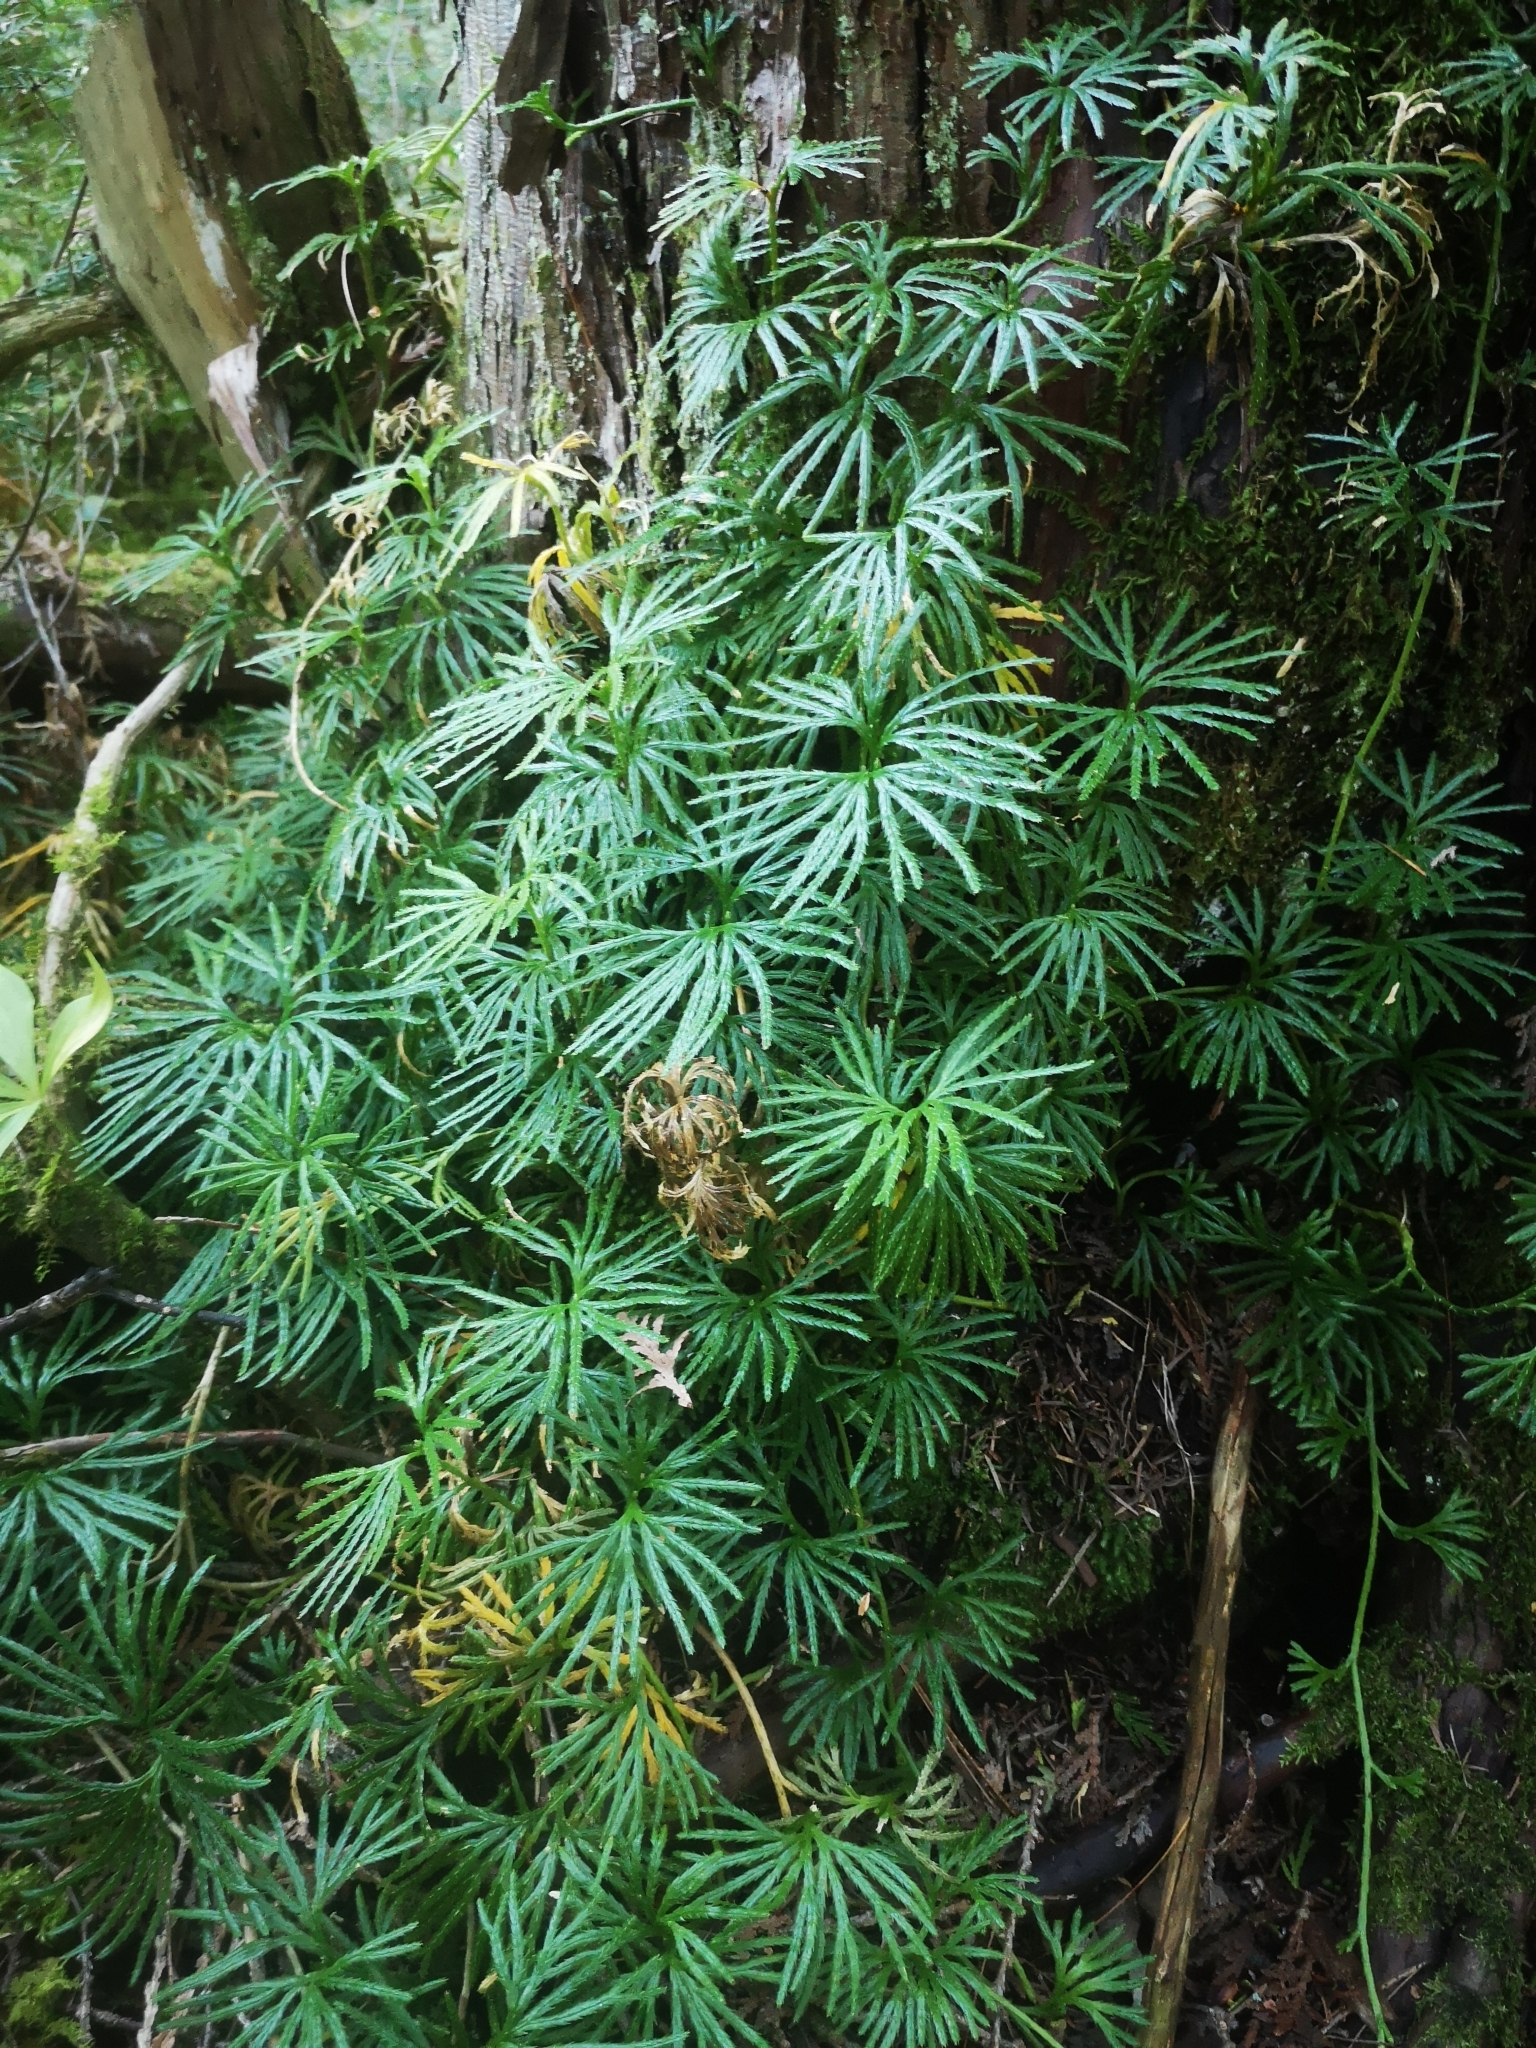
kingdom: Plantae
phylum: Tracheophyta
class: Lycopodiopsida
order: Lycopodiales
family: Lycopodiaceae
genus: Diphasiastrum
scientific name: Diphasiastrum digitatum
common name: Southern running-pine
